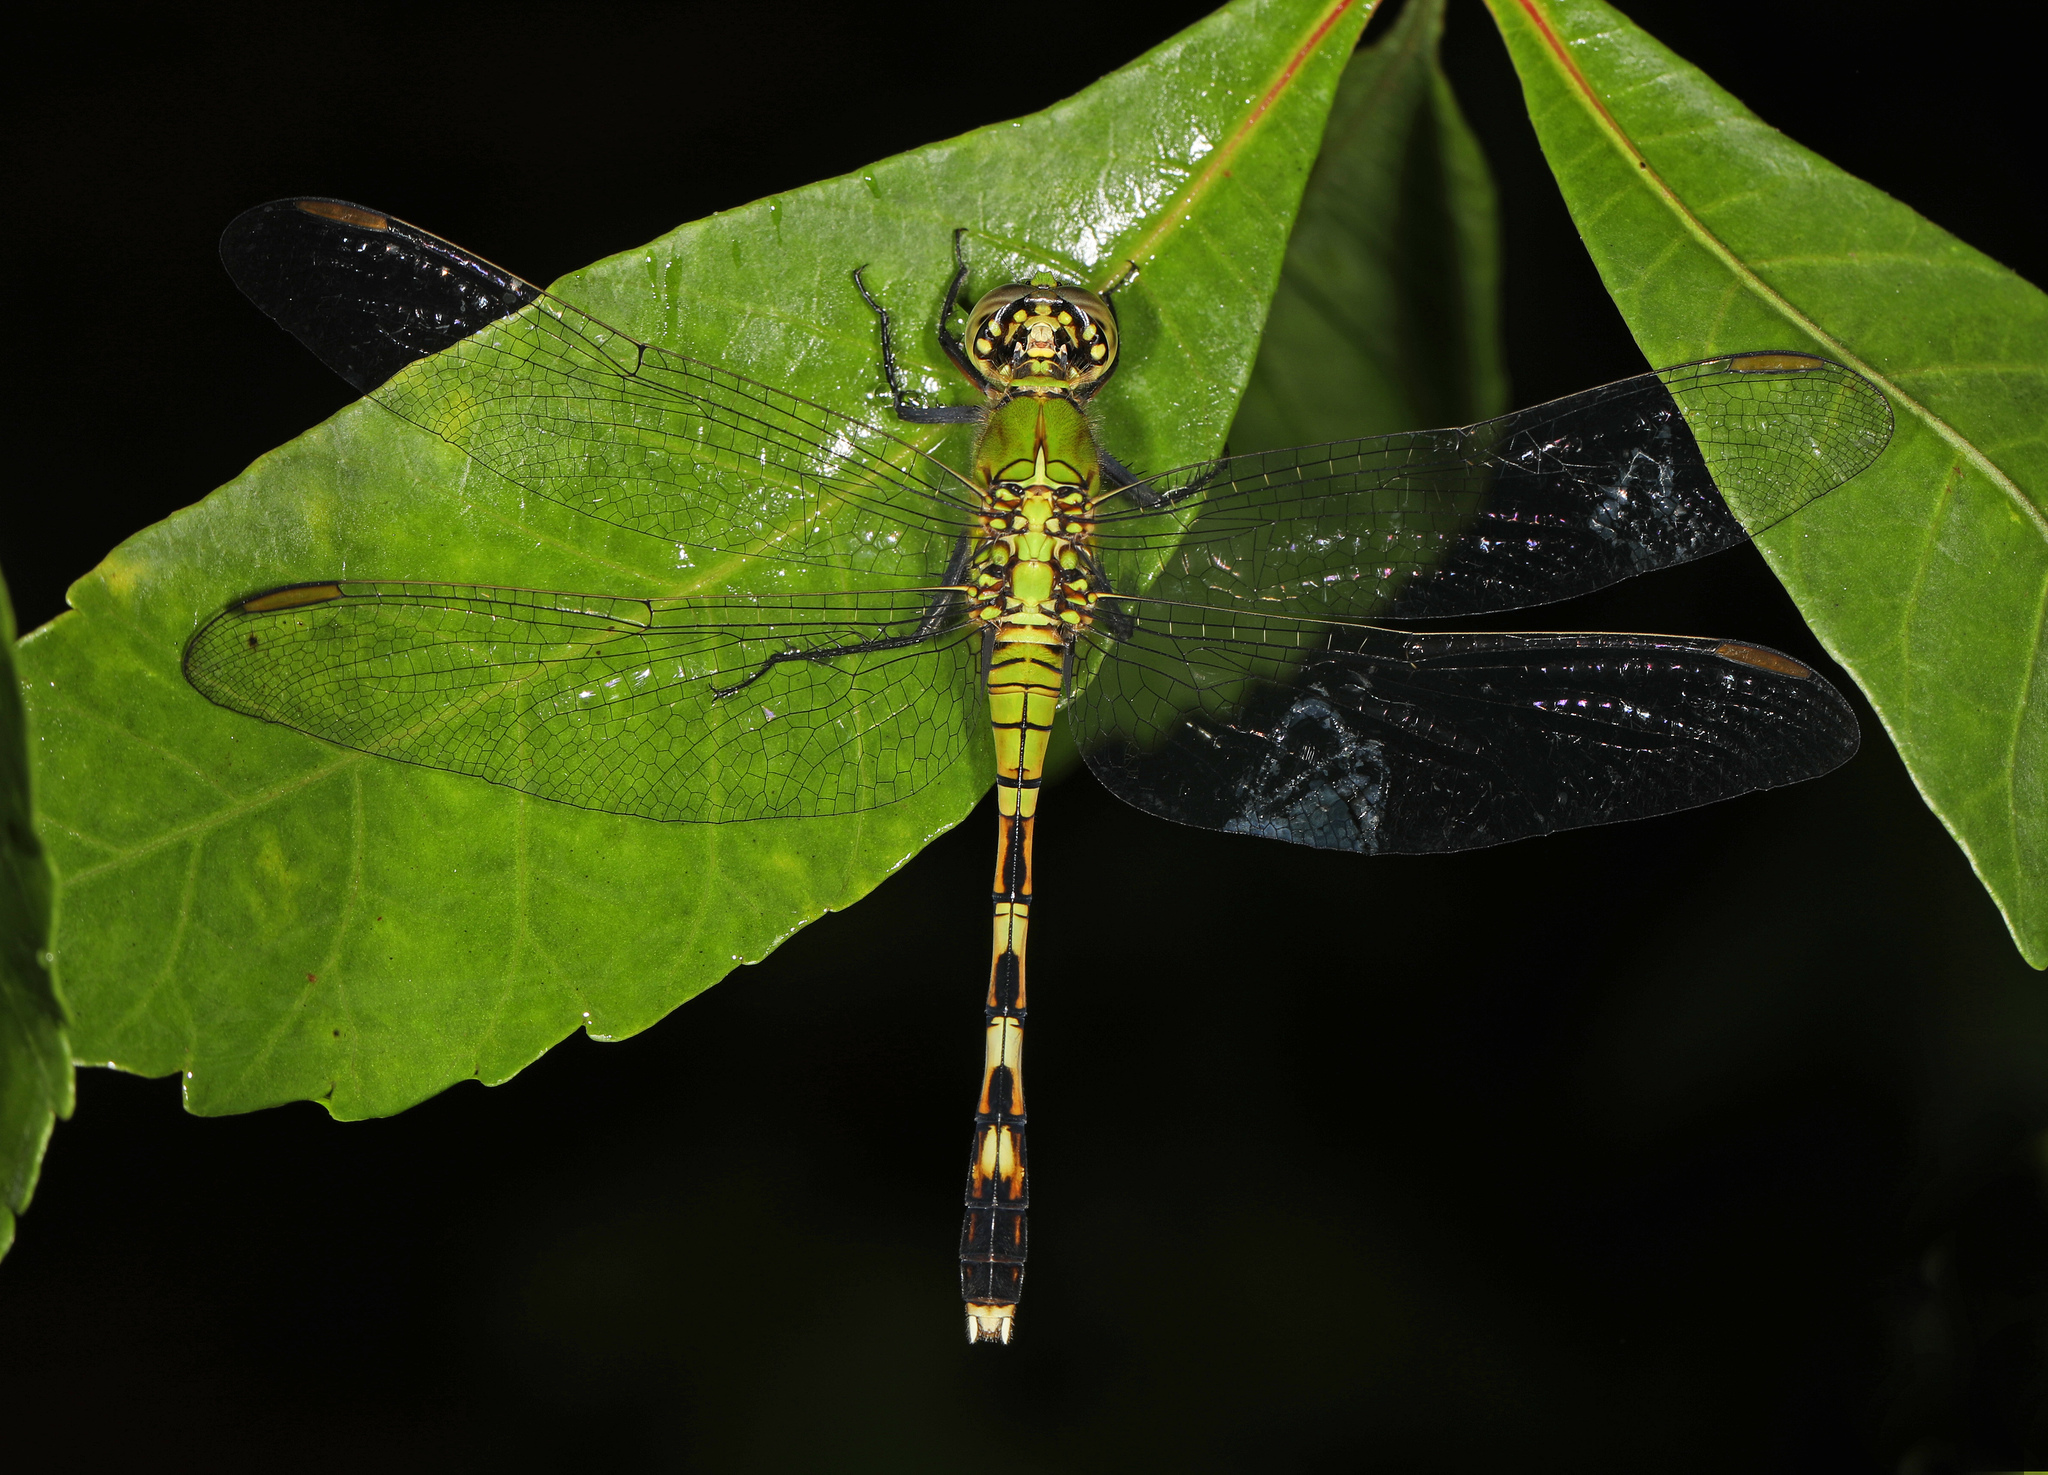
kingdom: Animalia
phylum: Arthropoda
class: Insecta
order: Odonata
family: Libellulidae
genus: Erythemis
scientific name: Erythemis simplicicollis
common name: Eastern pondhawk
